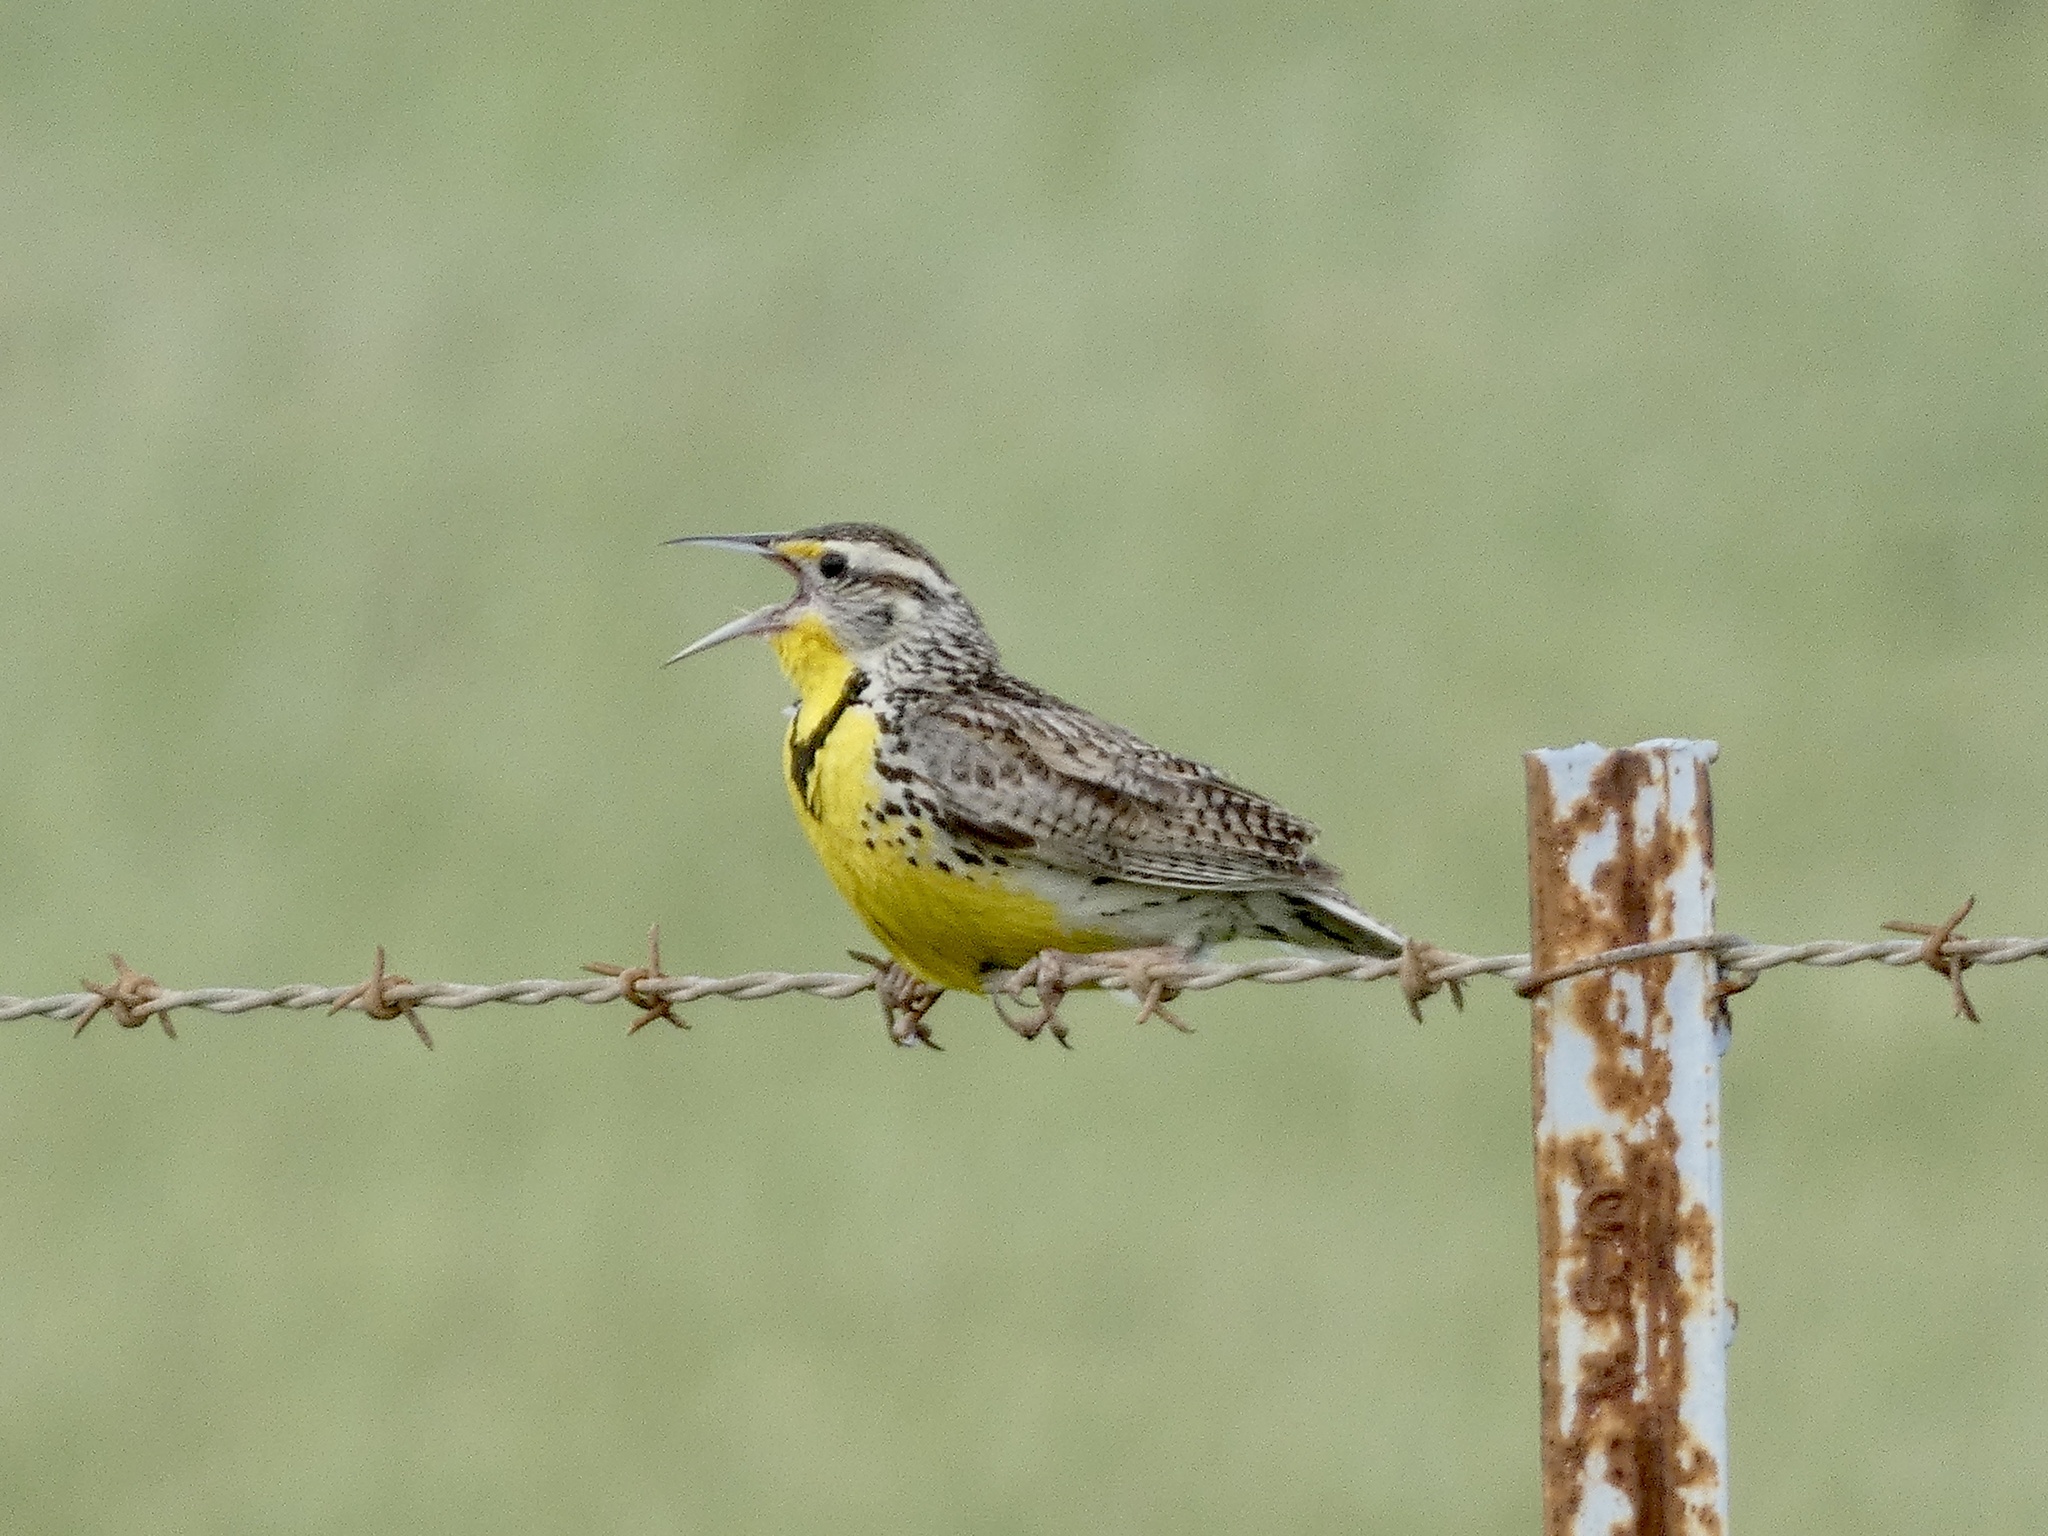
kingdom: Animalia
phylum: Chordata
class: Aves
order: Passeriformes
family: Icteridae
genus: Sturnella
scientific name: Sturnella neglecta
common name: Western meadowlark
